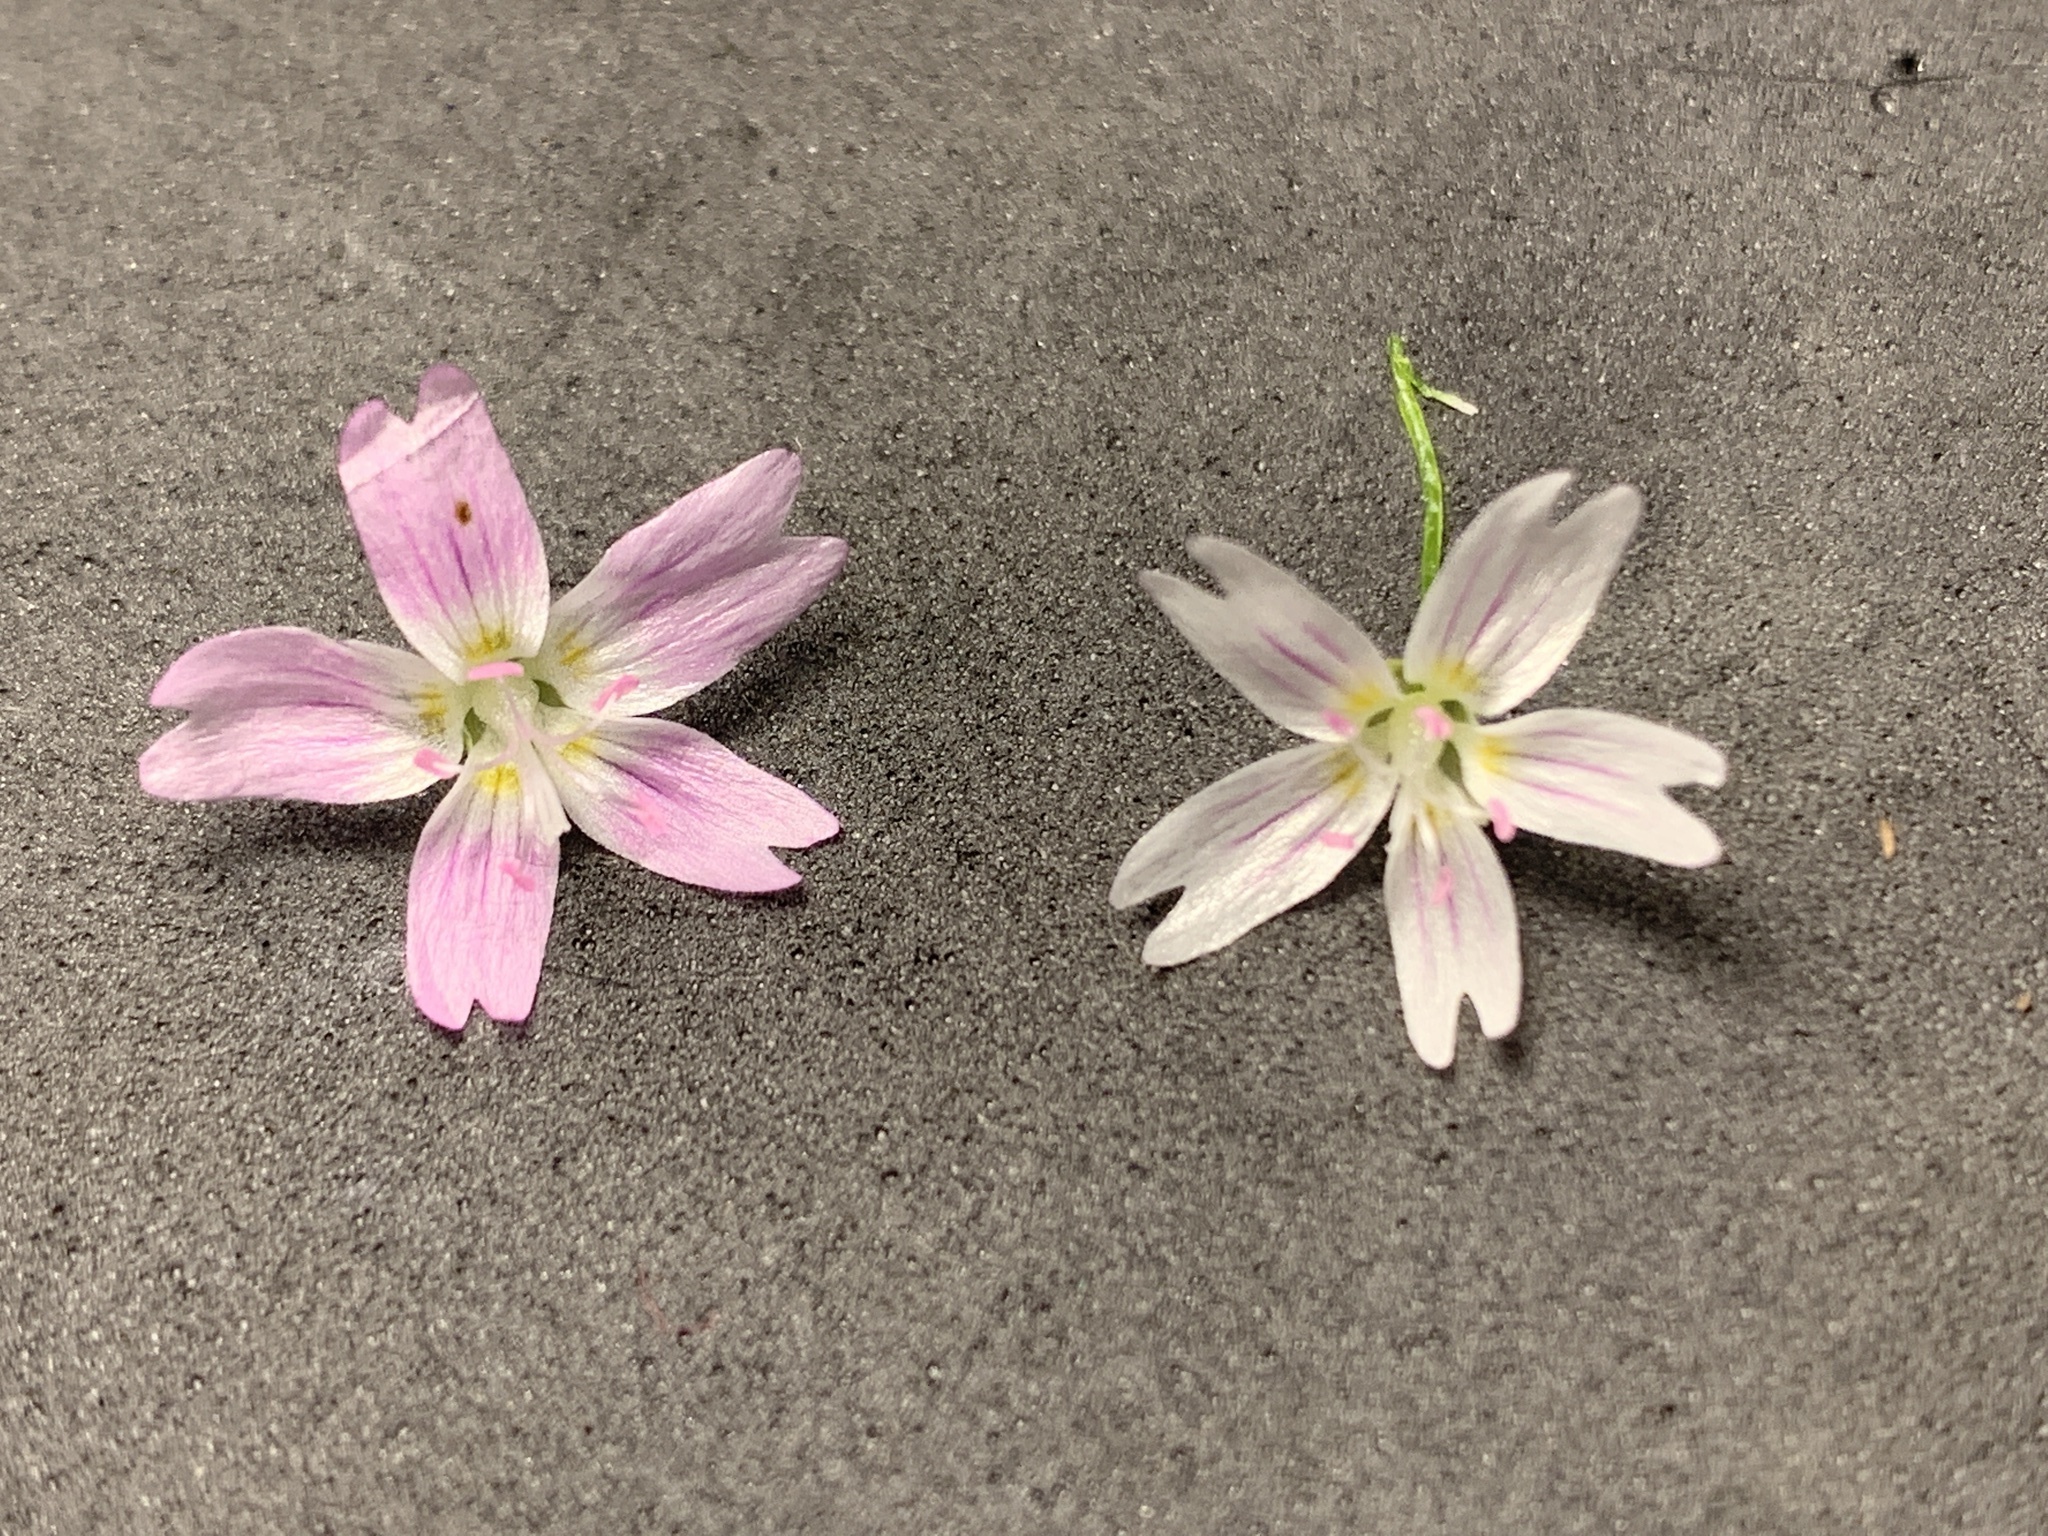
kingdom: Plantae
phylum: Tracheophyta
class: Magnoliopsida
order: Caryophyllales
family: Montiaceae
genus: Claytonia
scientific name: Claytonia sibirica
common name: Pink purslane
